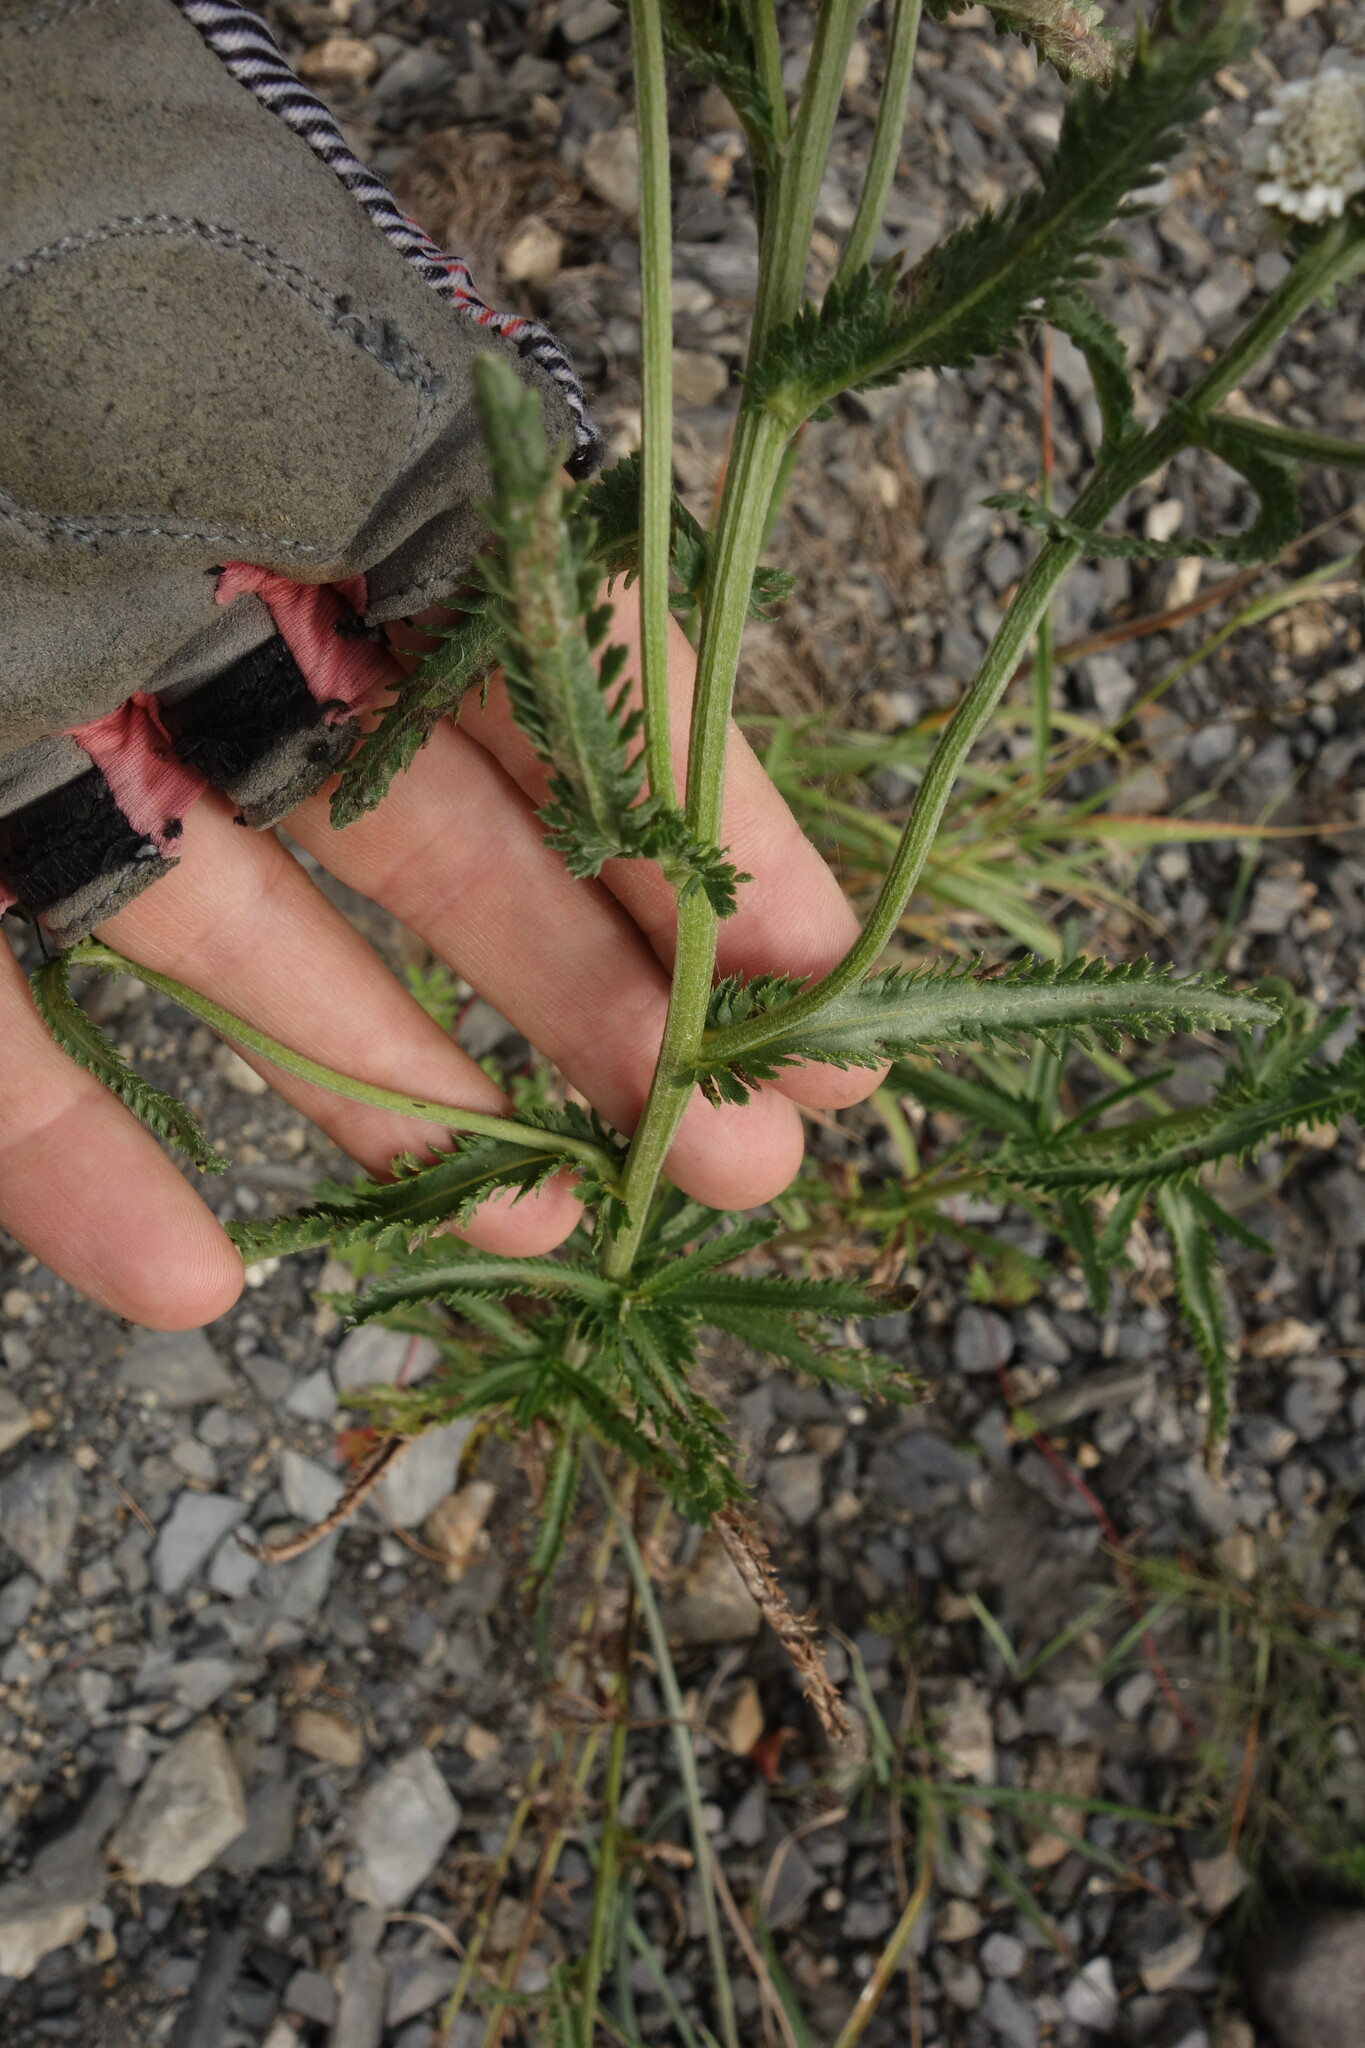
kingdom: Plantae
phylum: Tracheophyta
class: Magnoliopsida
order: Asterales
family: Asteraceae
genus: Achillea
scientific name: Achillea alpina
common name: Siberian yarrow
